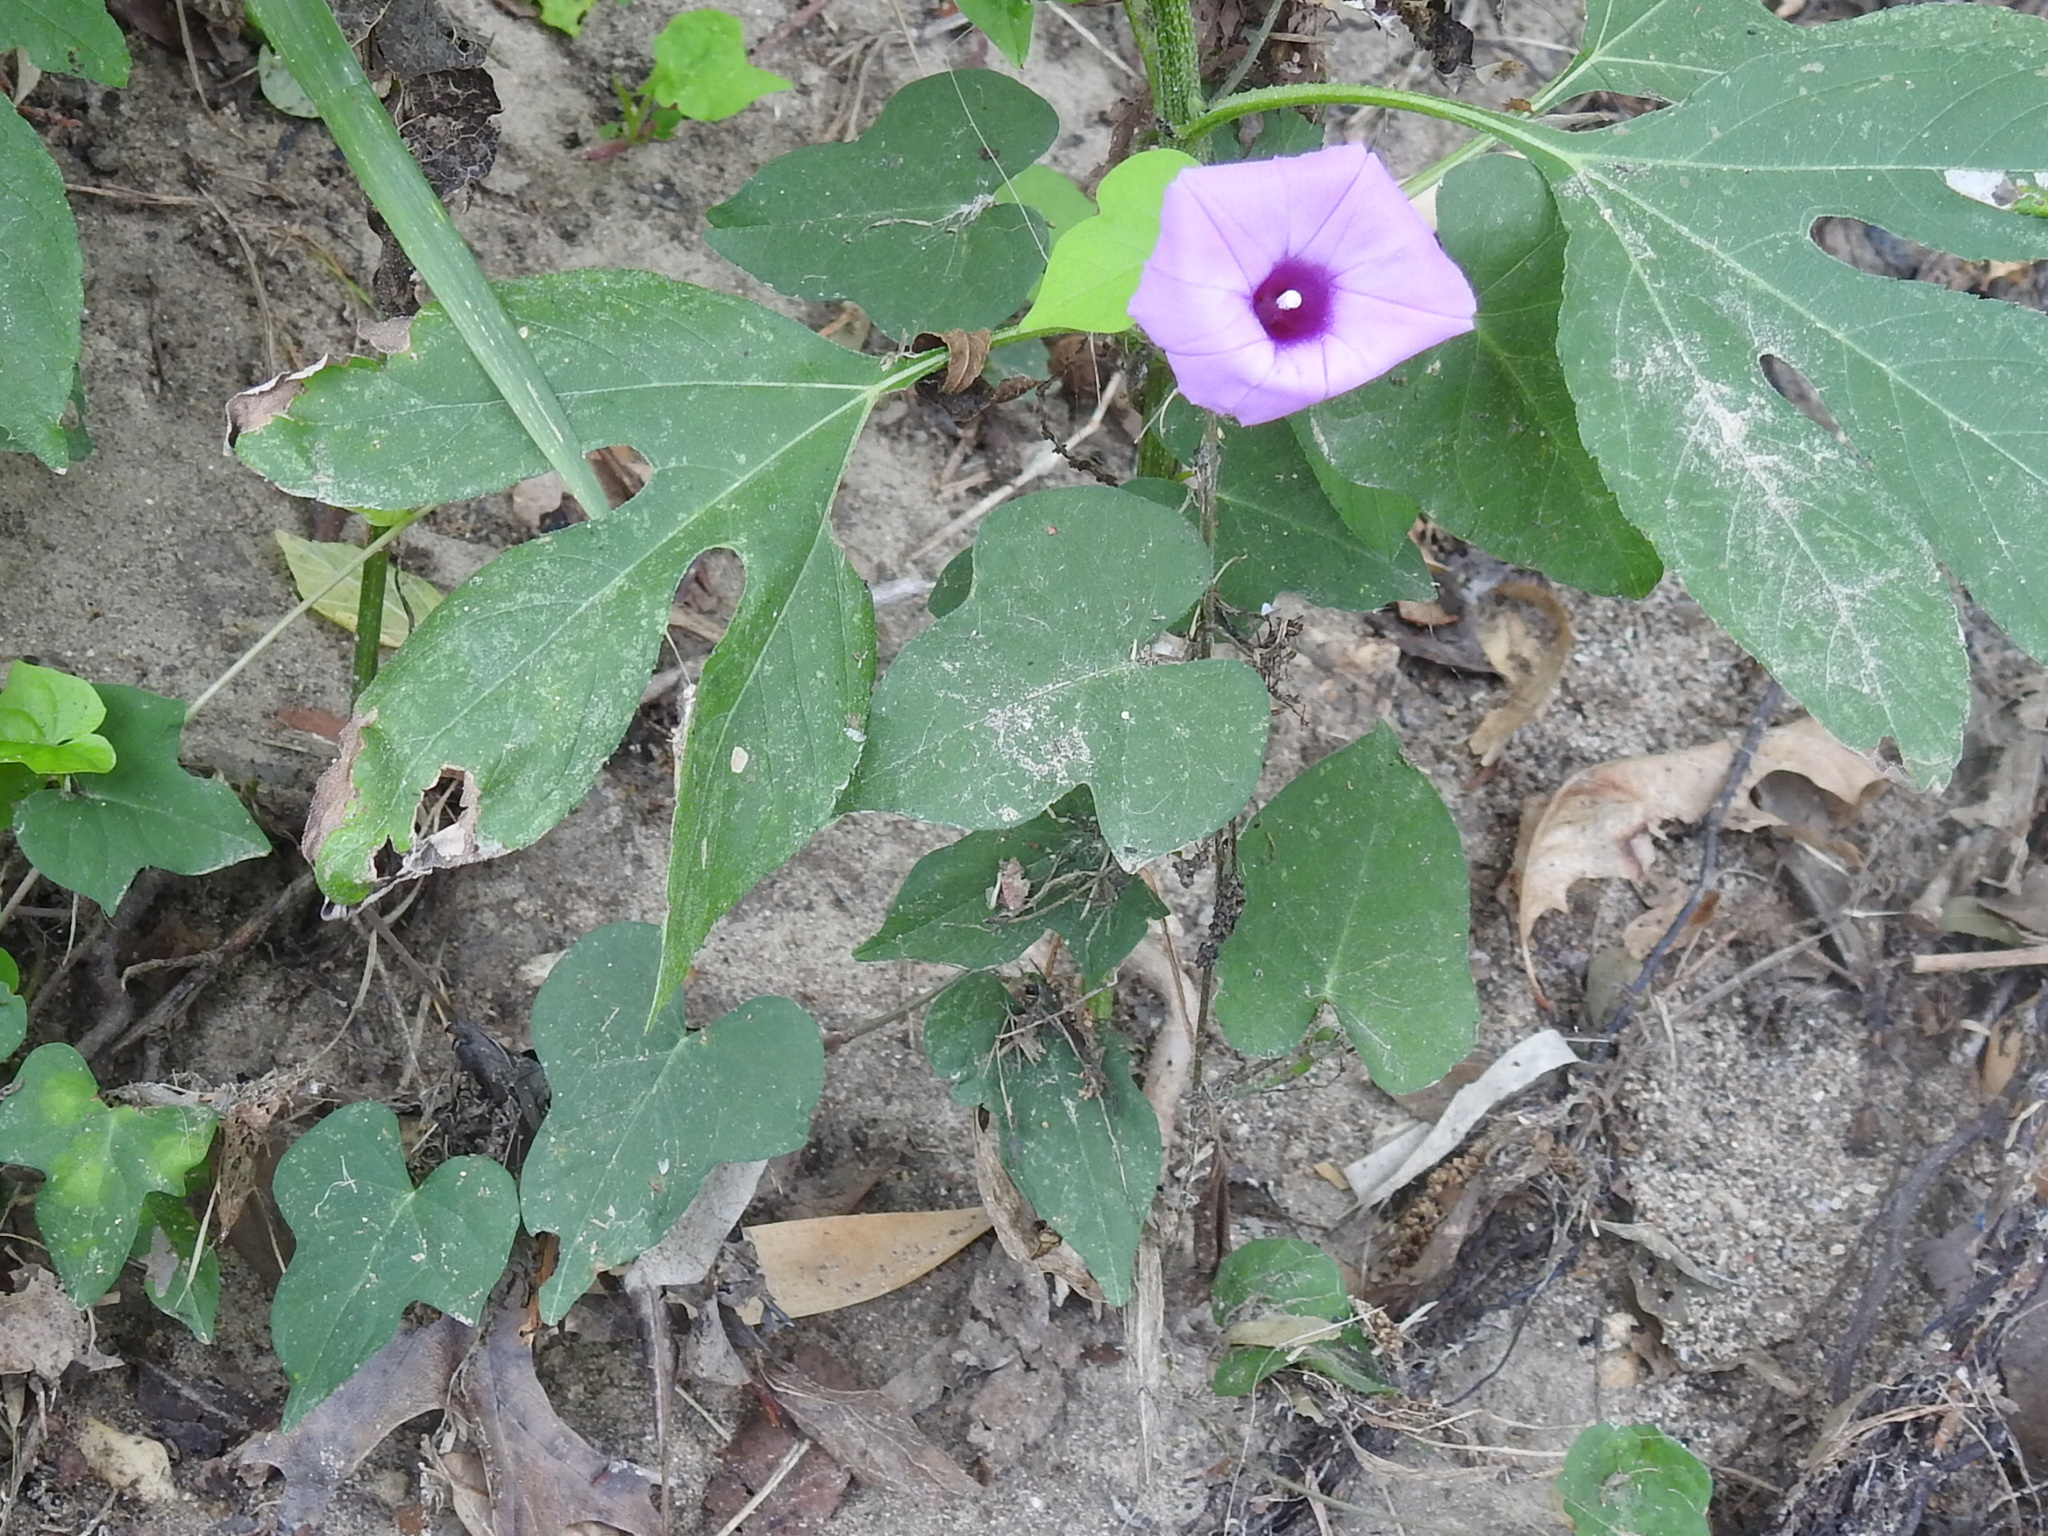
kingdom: Plantae
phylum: Tracheophyta
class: Magnoliopsida
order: Solanales
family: Convolvulaceae
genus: Ipomoea
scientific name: Ipomoea cordatotriloba
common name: Cotton morning glory
